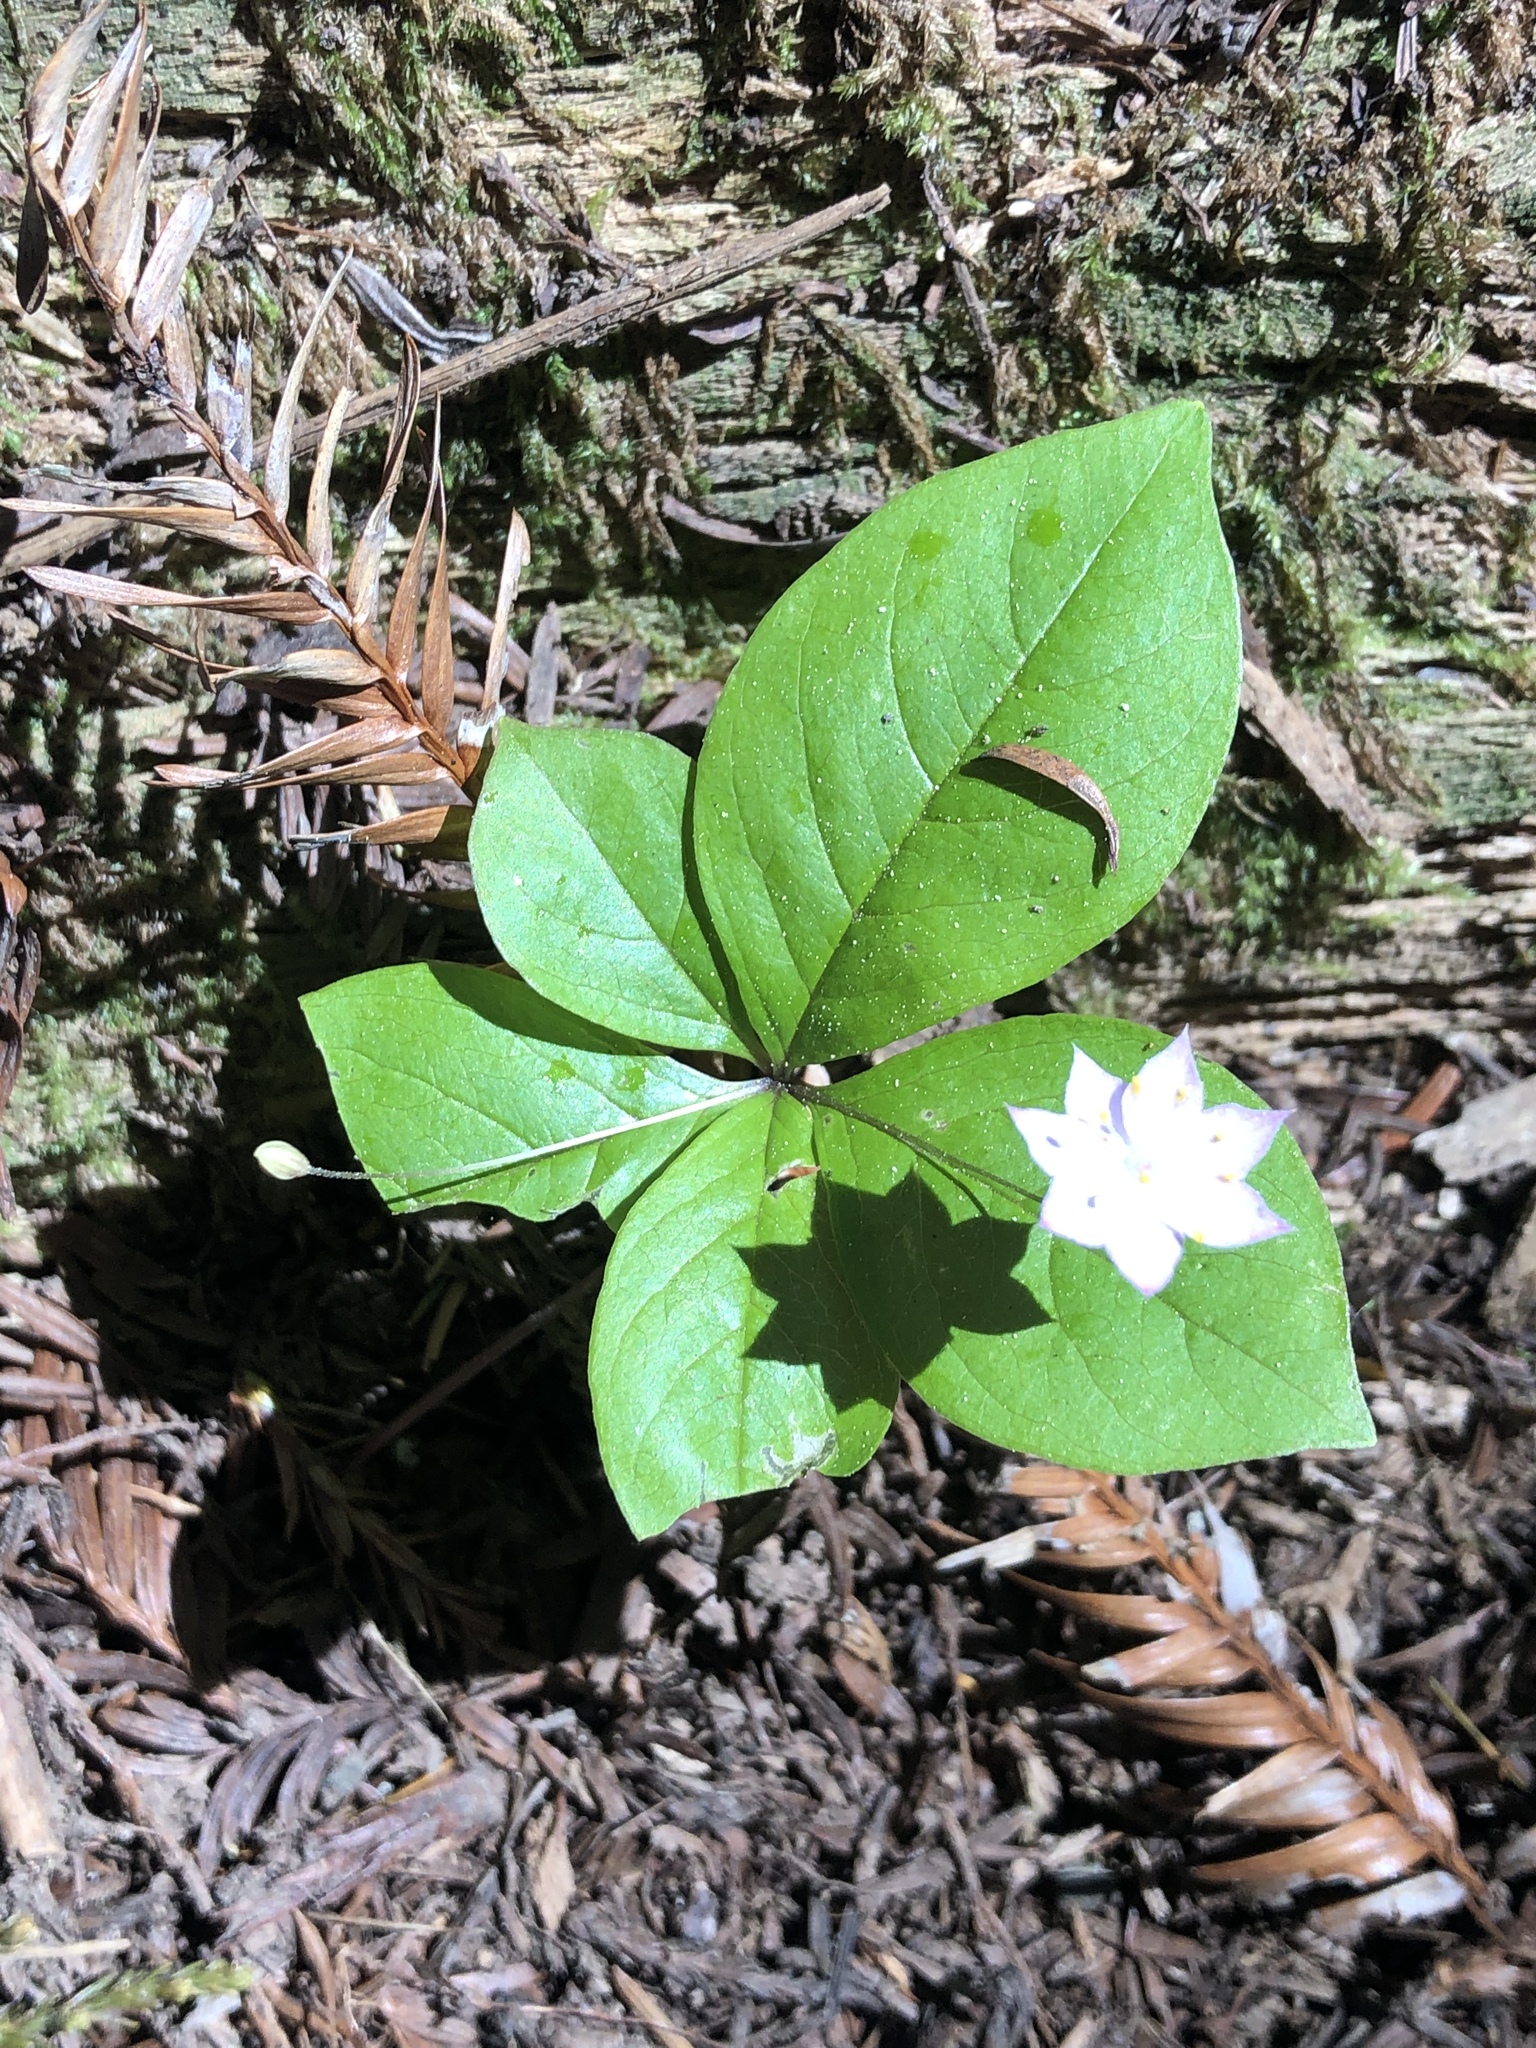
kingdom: Plantae
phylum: Tracheophyta
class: Magnoliopsida
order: Ericales
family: Primulaceae
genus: Lysimachia
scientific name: Lysimachia latifolia
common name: Pacific starflower
